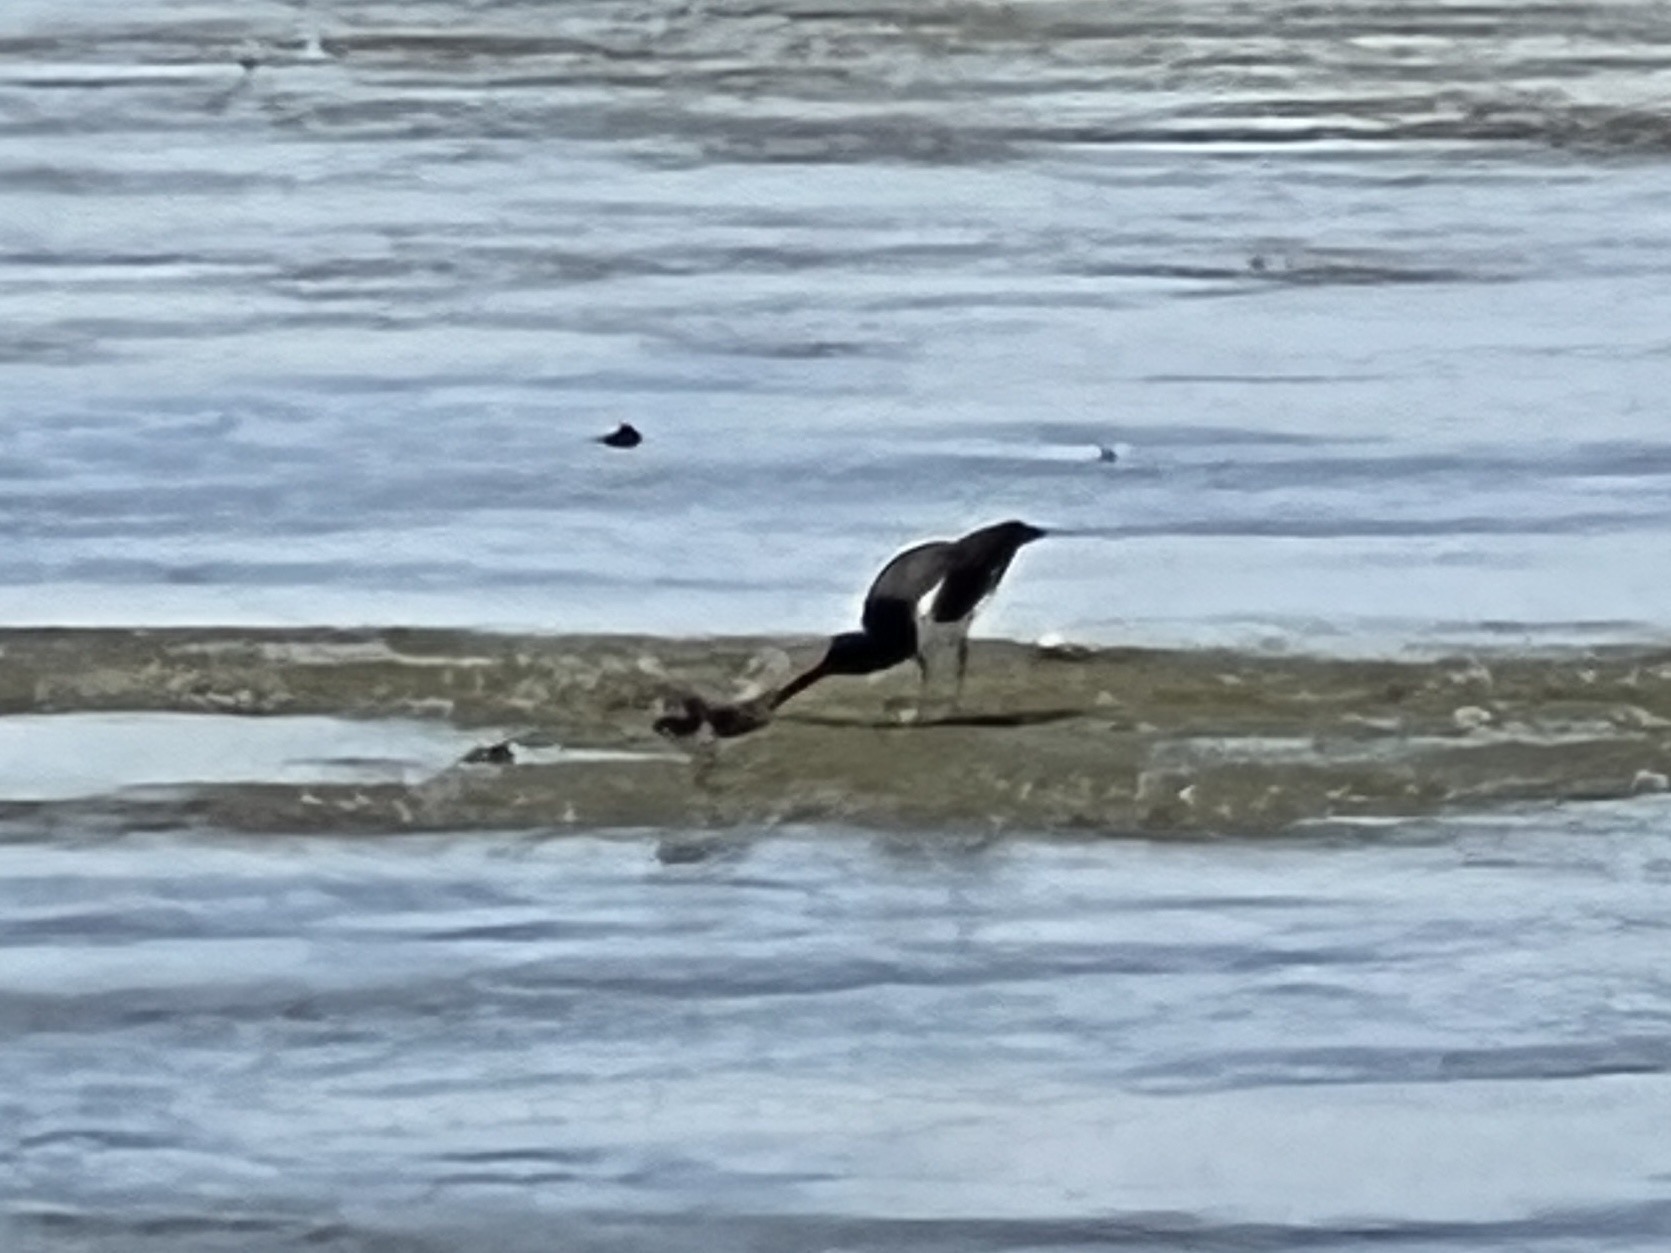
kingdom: Animalia
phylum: Chordata
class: Aves
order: Charadriiformes
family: Haematopodidae
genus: Haematopus
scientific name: Haematopus palliatus
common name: American oystercatcher
